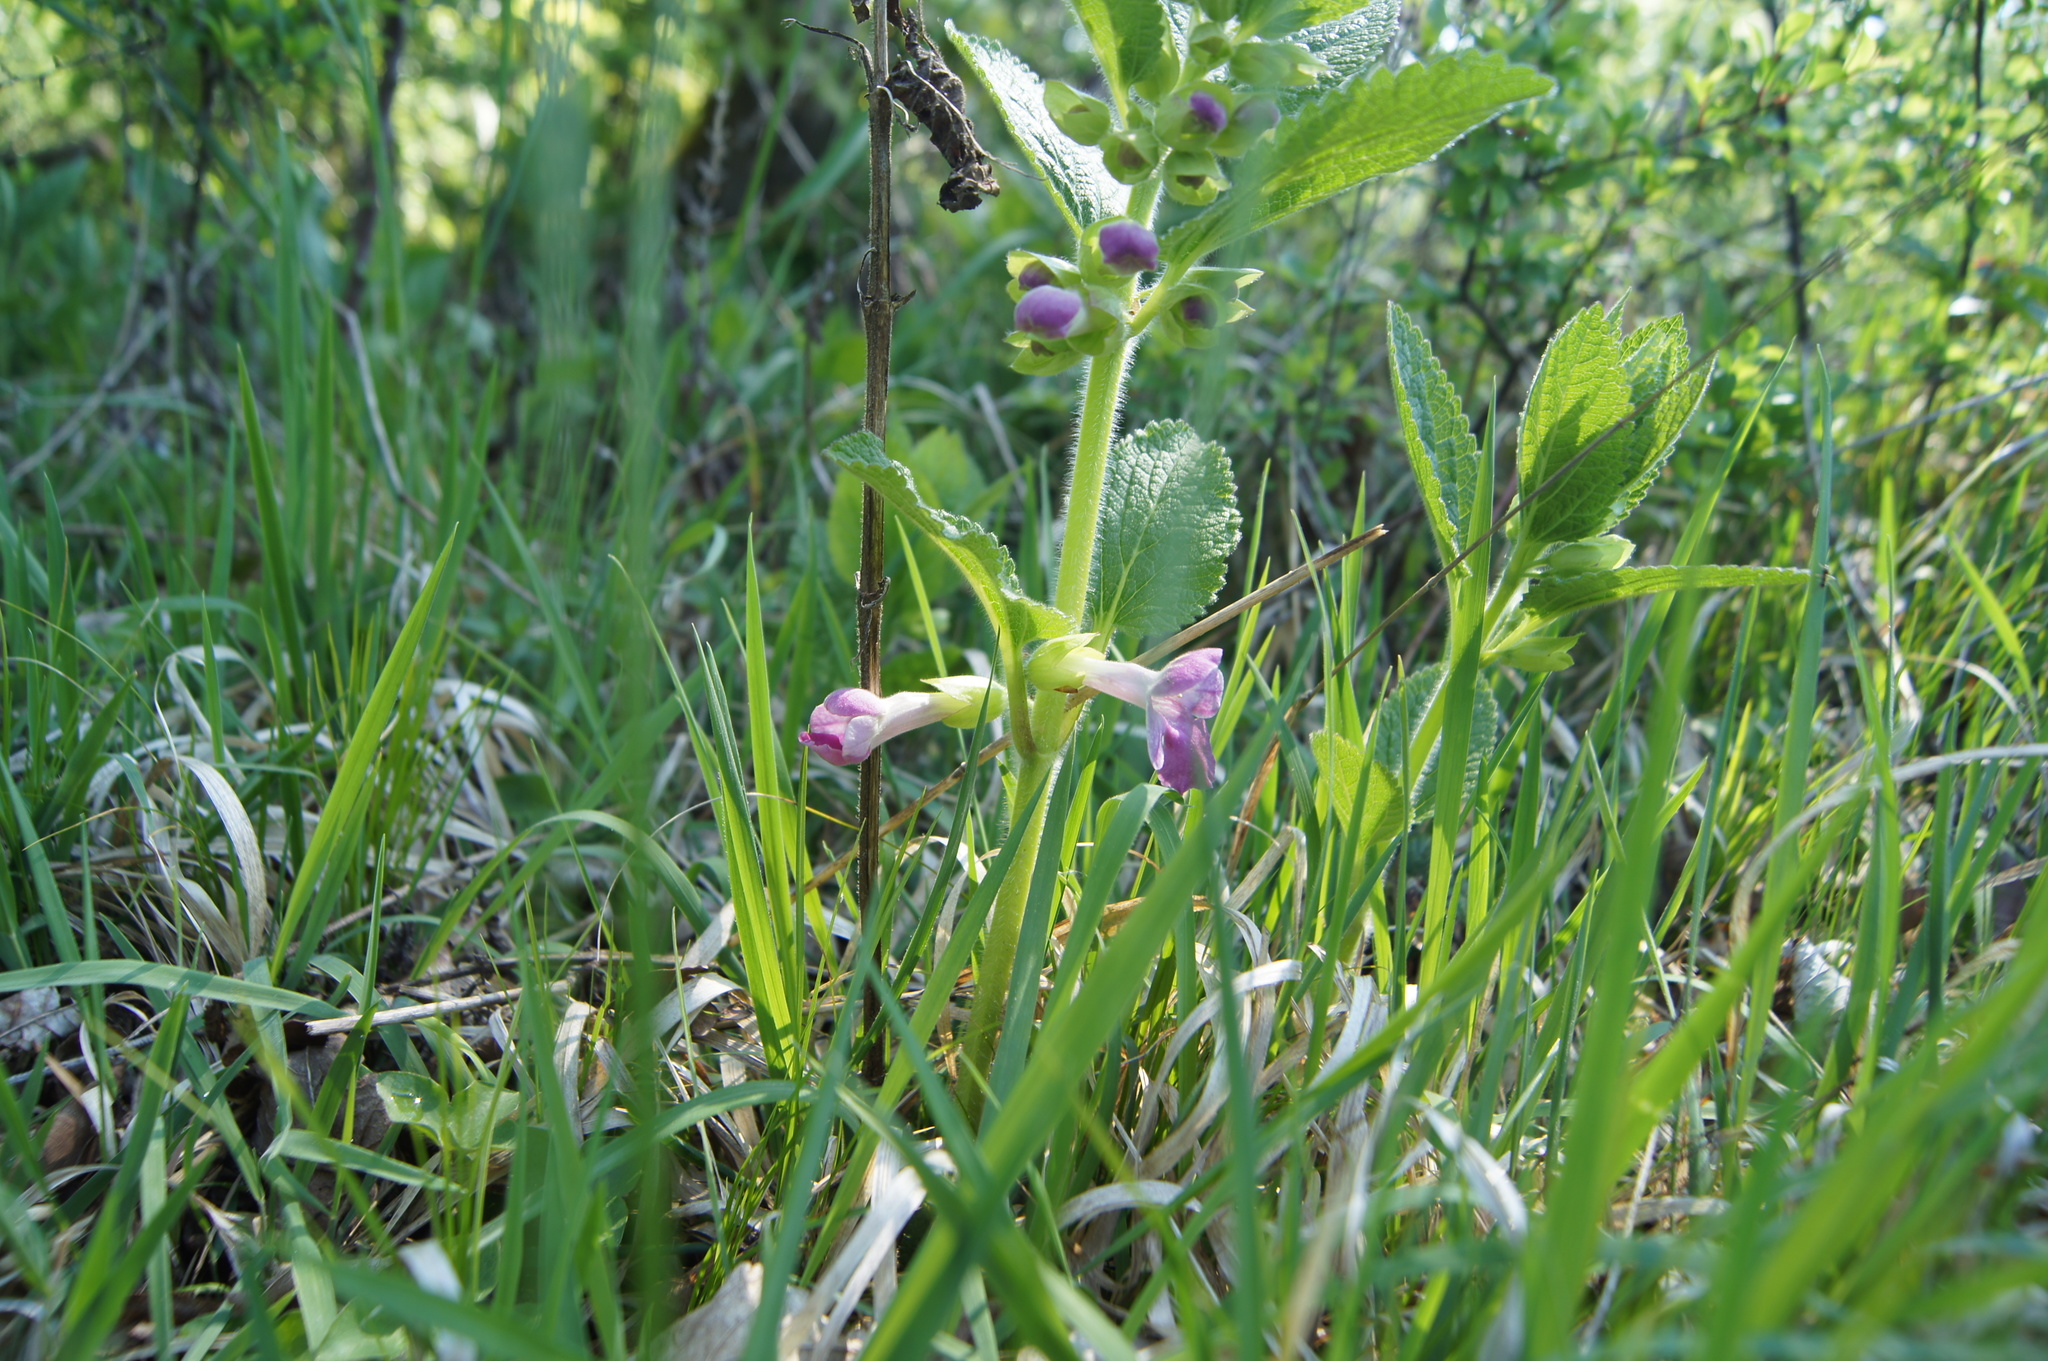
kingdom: Plantae
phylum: Tracheophyta
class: Magnoliopsida
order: Lamiales
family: Lamiaceae
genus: Melittis
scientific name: Melittis melissophyllum
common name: Bastard balm
